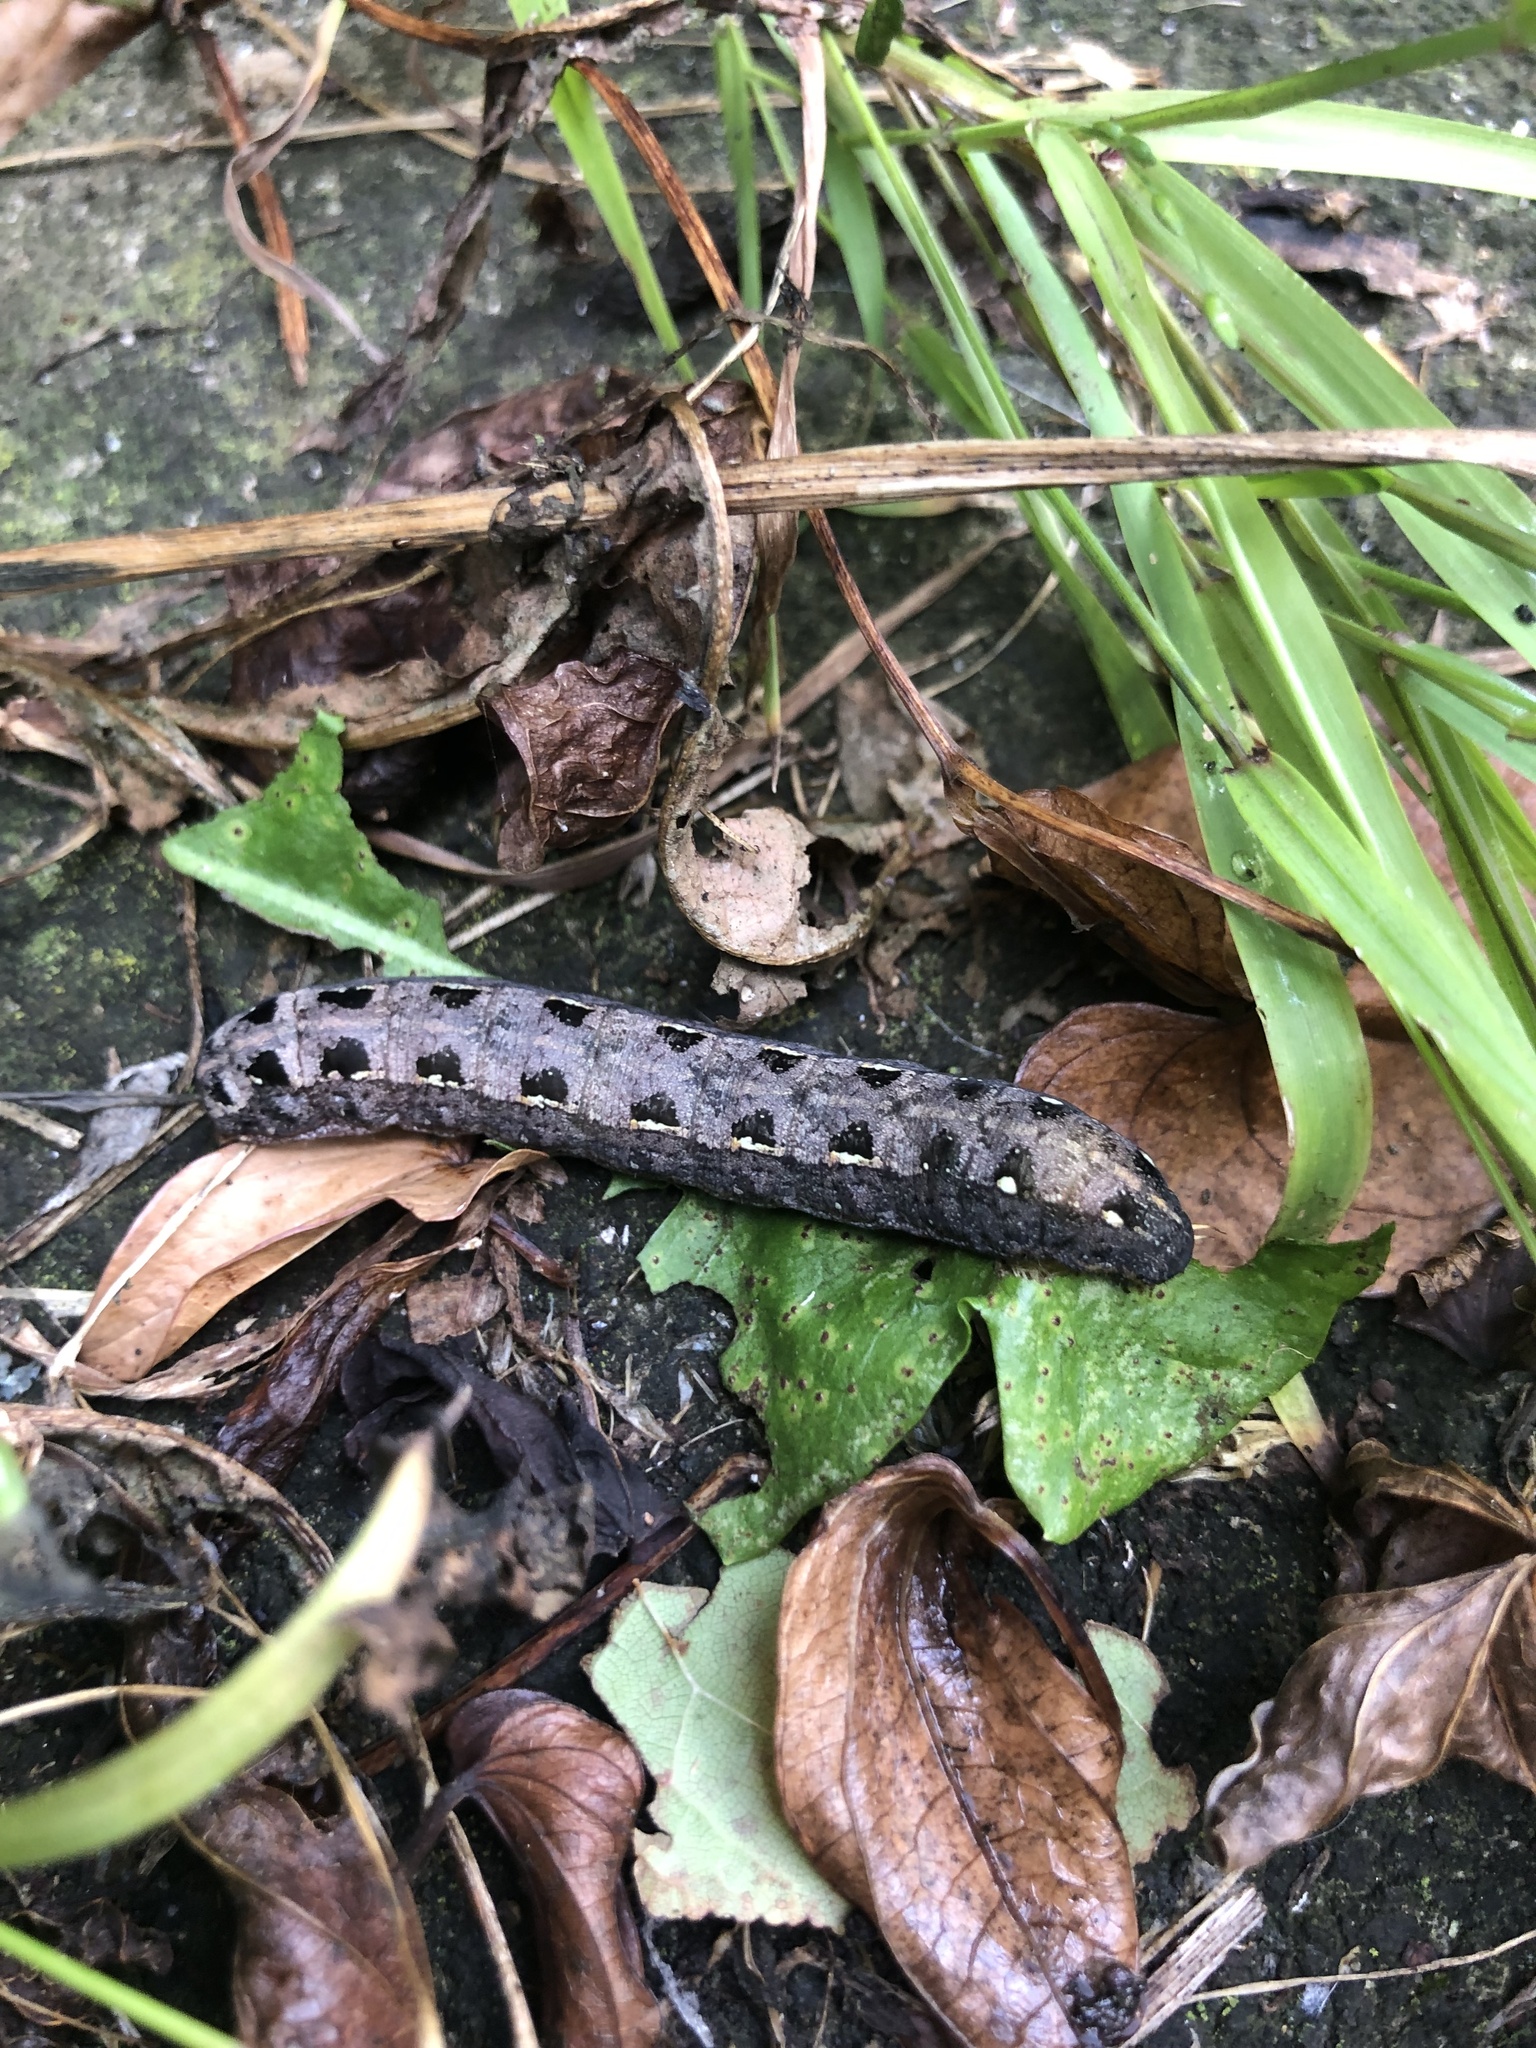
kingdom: Animalia
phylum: Arthropoda
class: Insecta
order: Lepidoptera
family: Noctuidae
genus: Spodoptera
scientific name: Spodoptera litura
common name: Asian cotton leafworm
